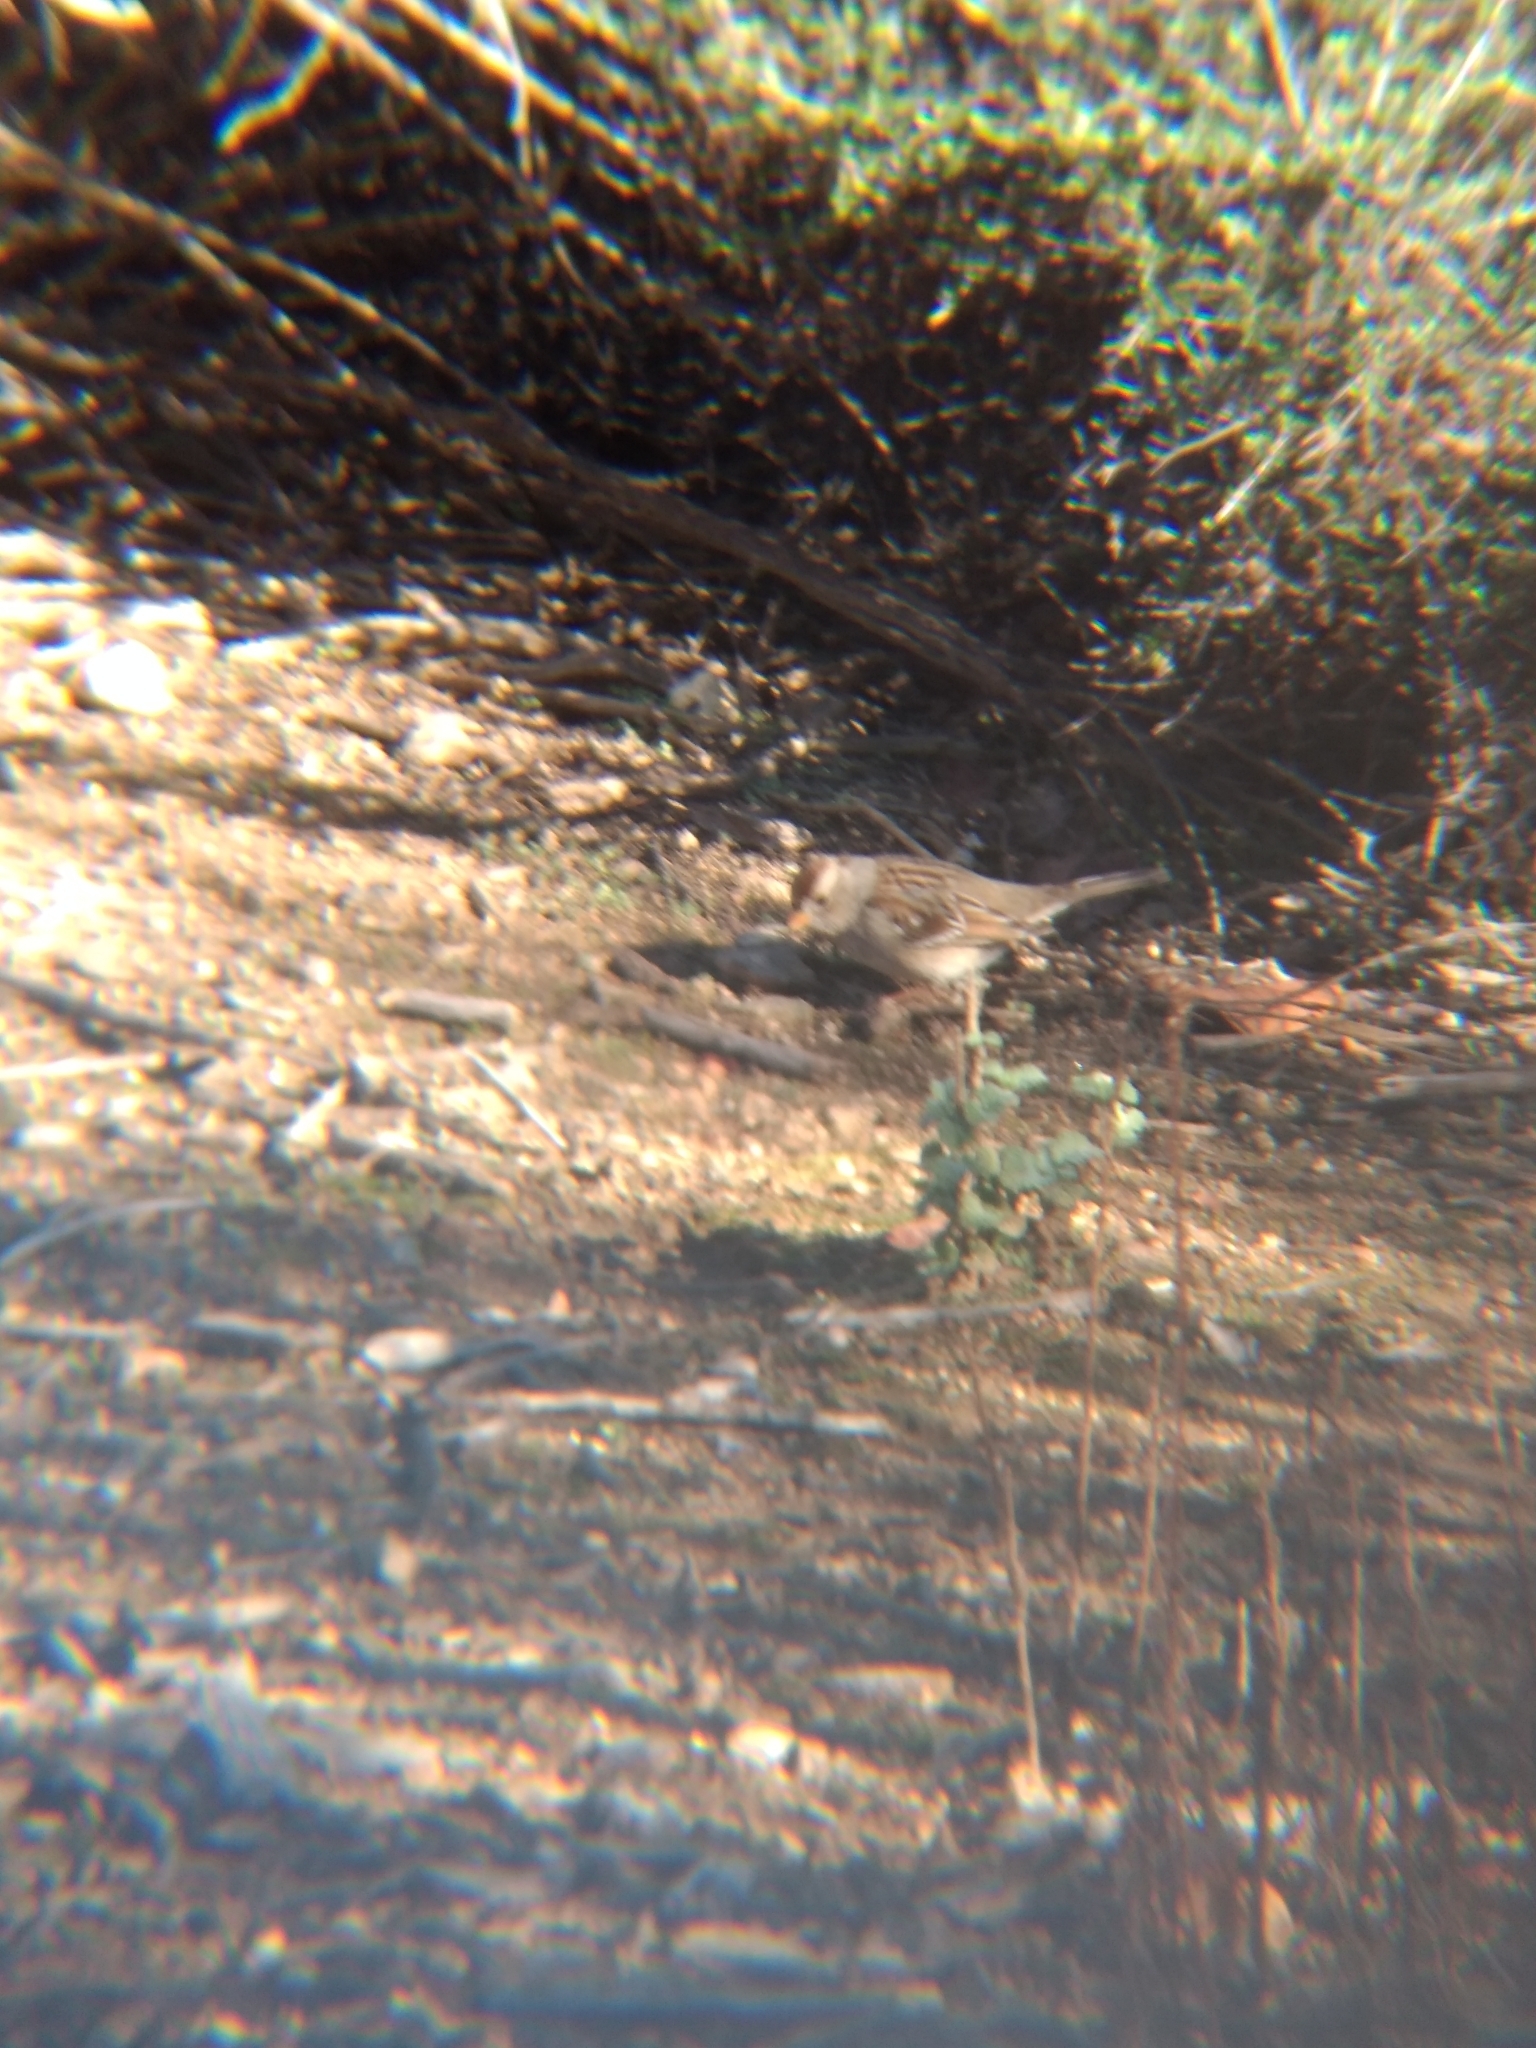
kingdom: Animalia
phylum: Chordata
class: Aves
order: Passeriformes
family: Passerellidae
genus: Zonotrichia
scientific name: Zonotrichia leucophrys
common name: White-crowned sparrow
